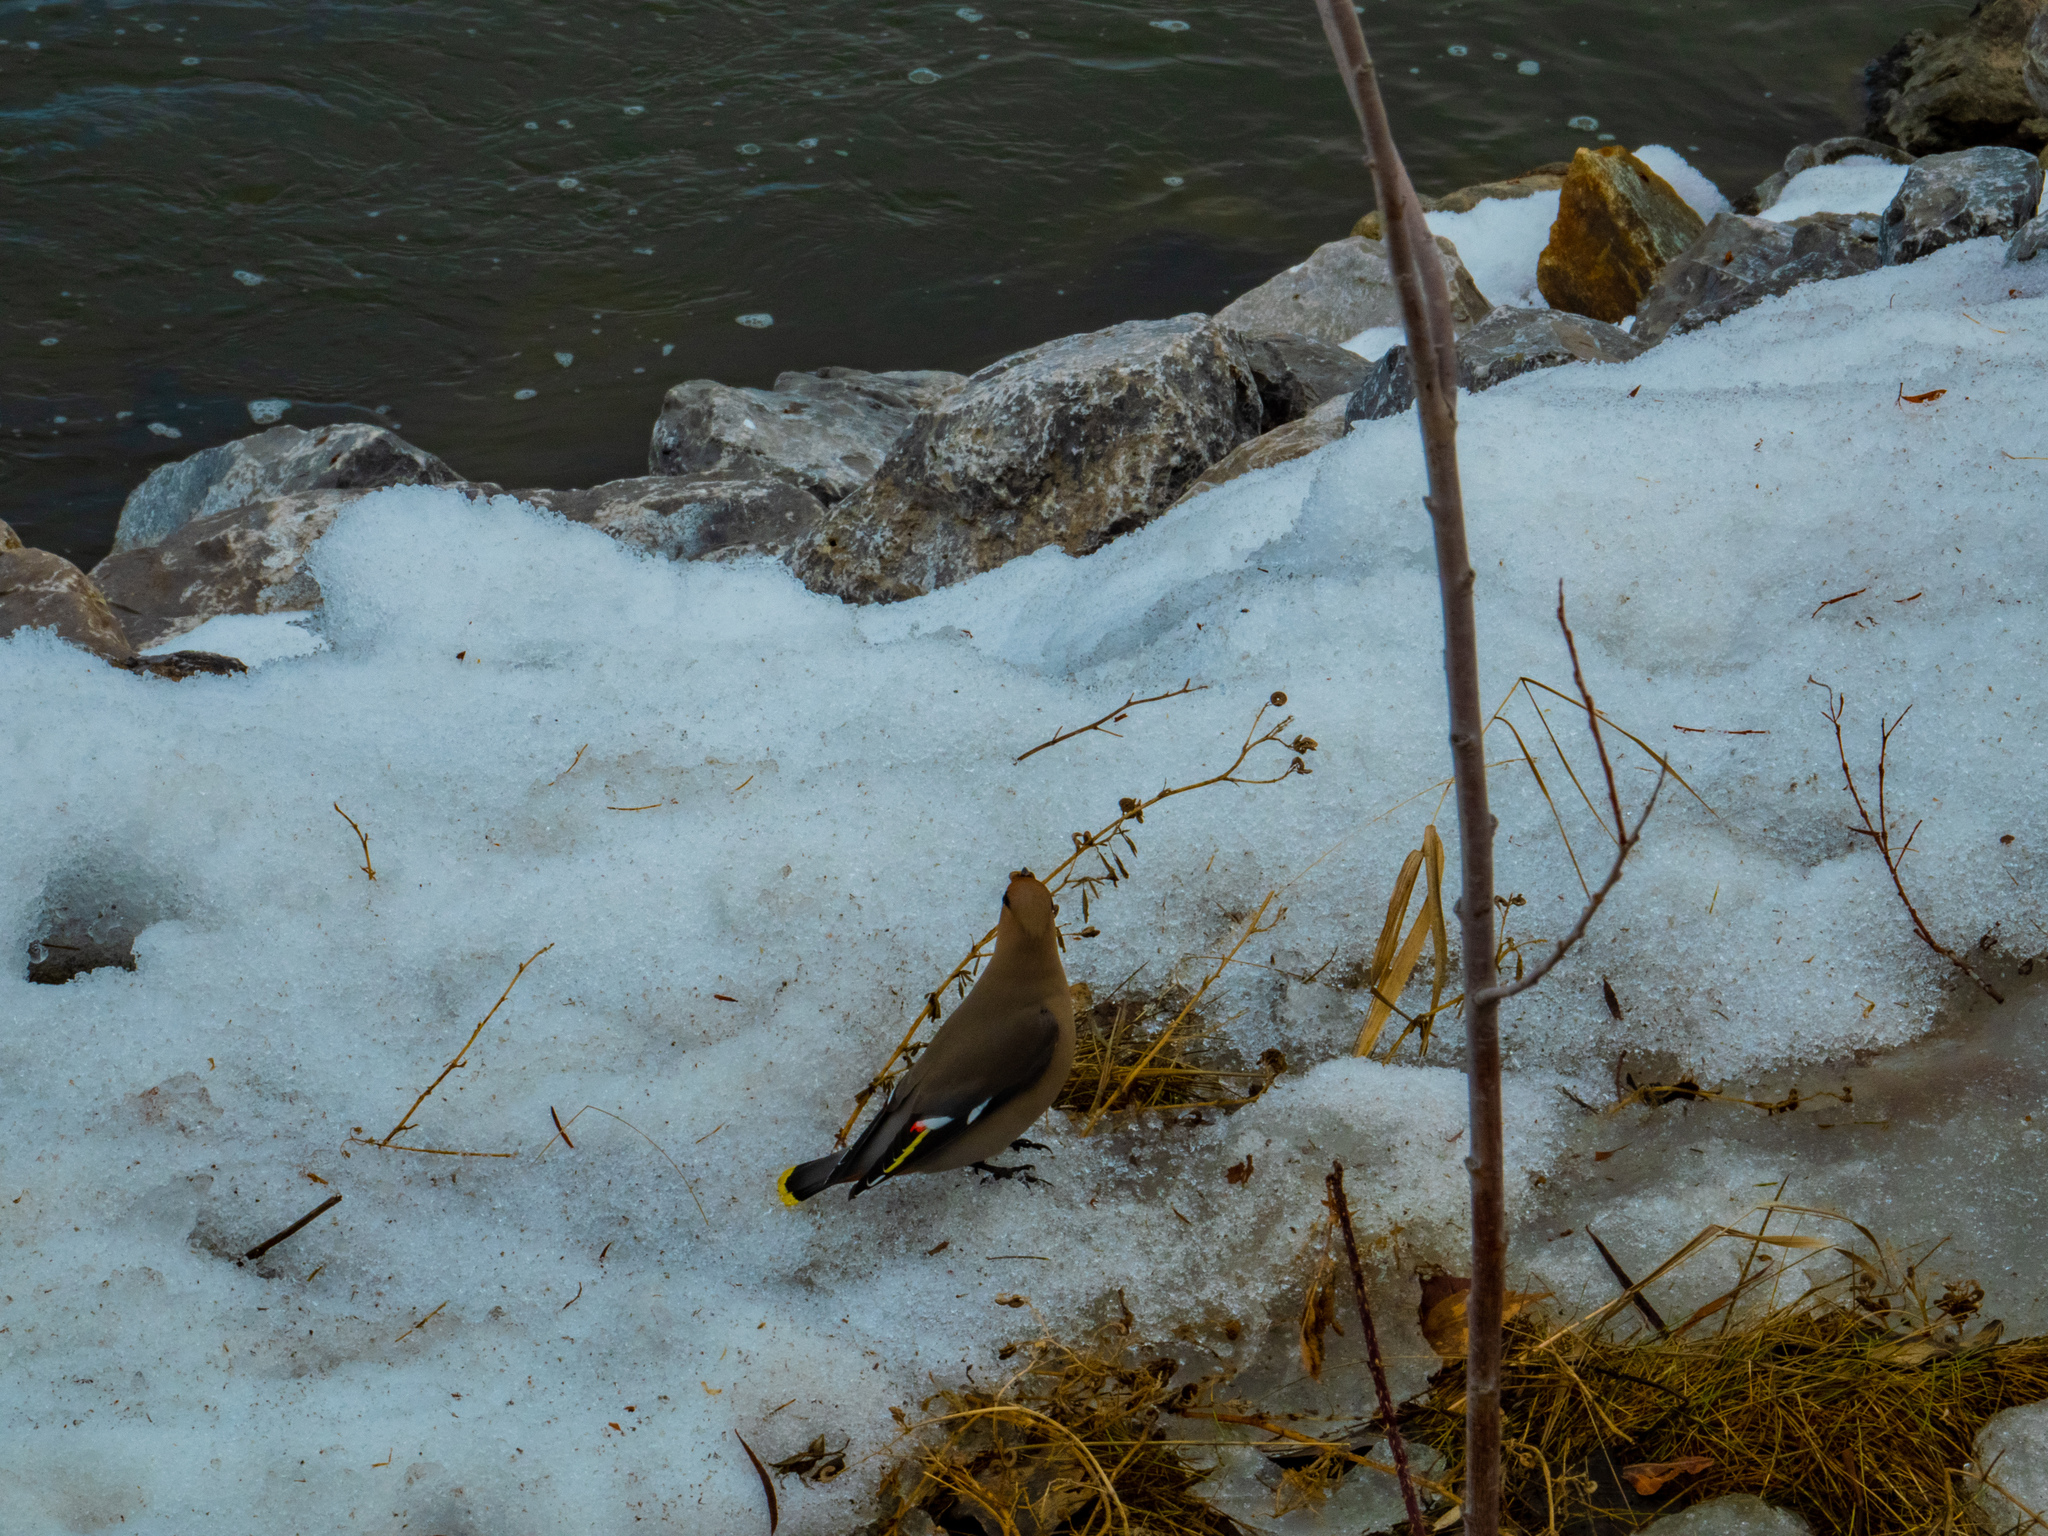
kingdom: Animalia
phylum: Chordata
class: Aves
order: Passeriformes
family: Bombycillidae
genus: Bombycilla
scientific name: Bombycilla garrulus
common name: Bohemian waxwing
